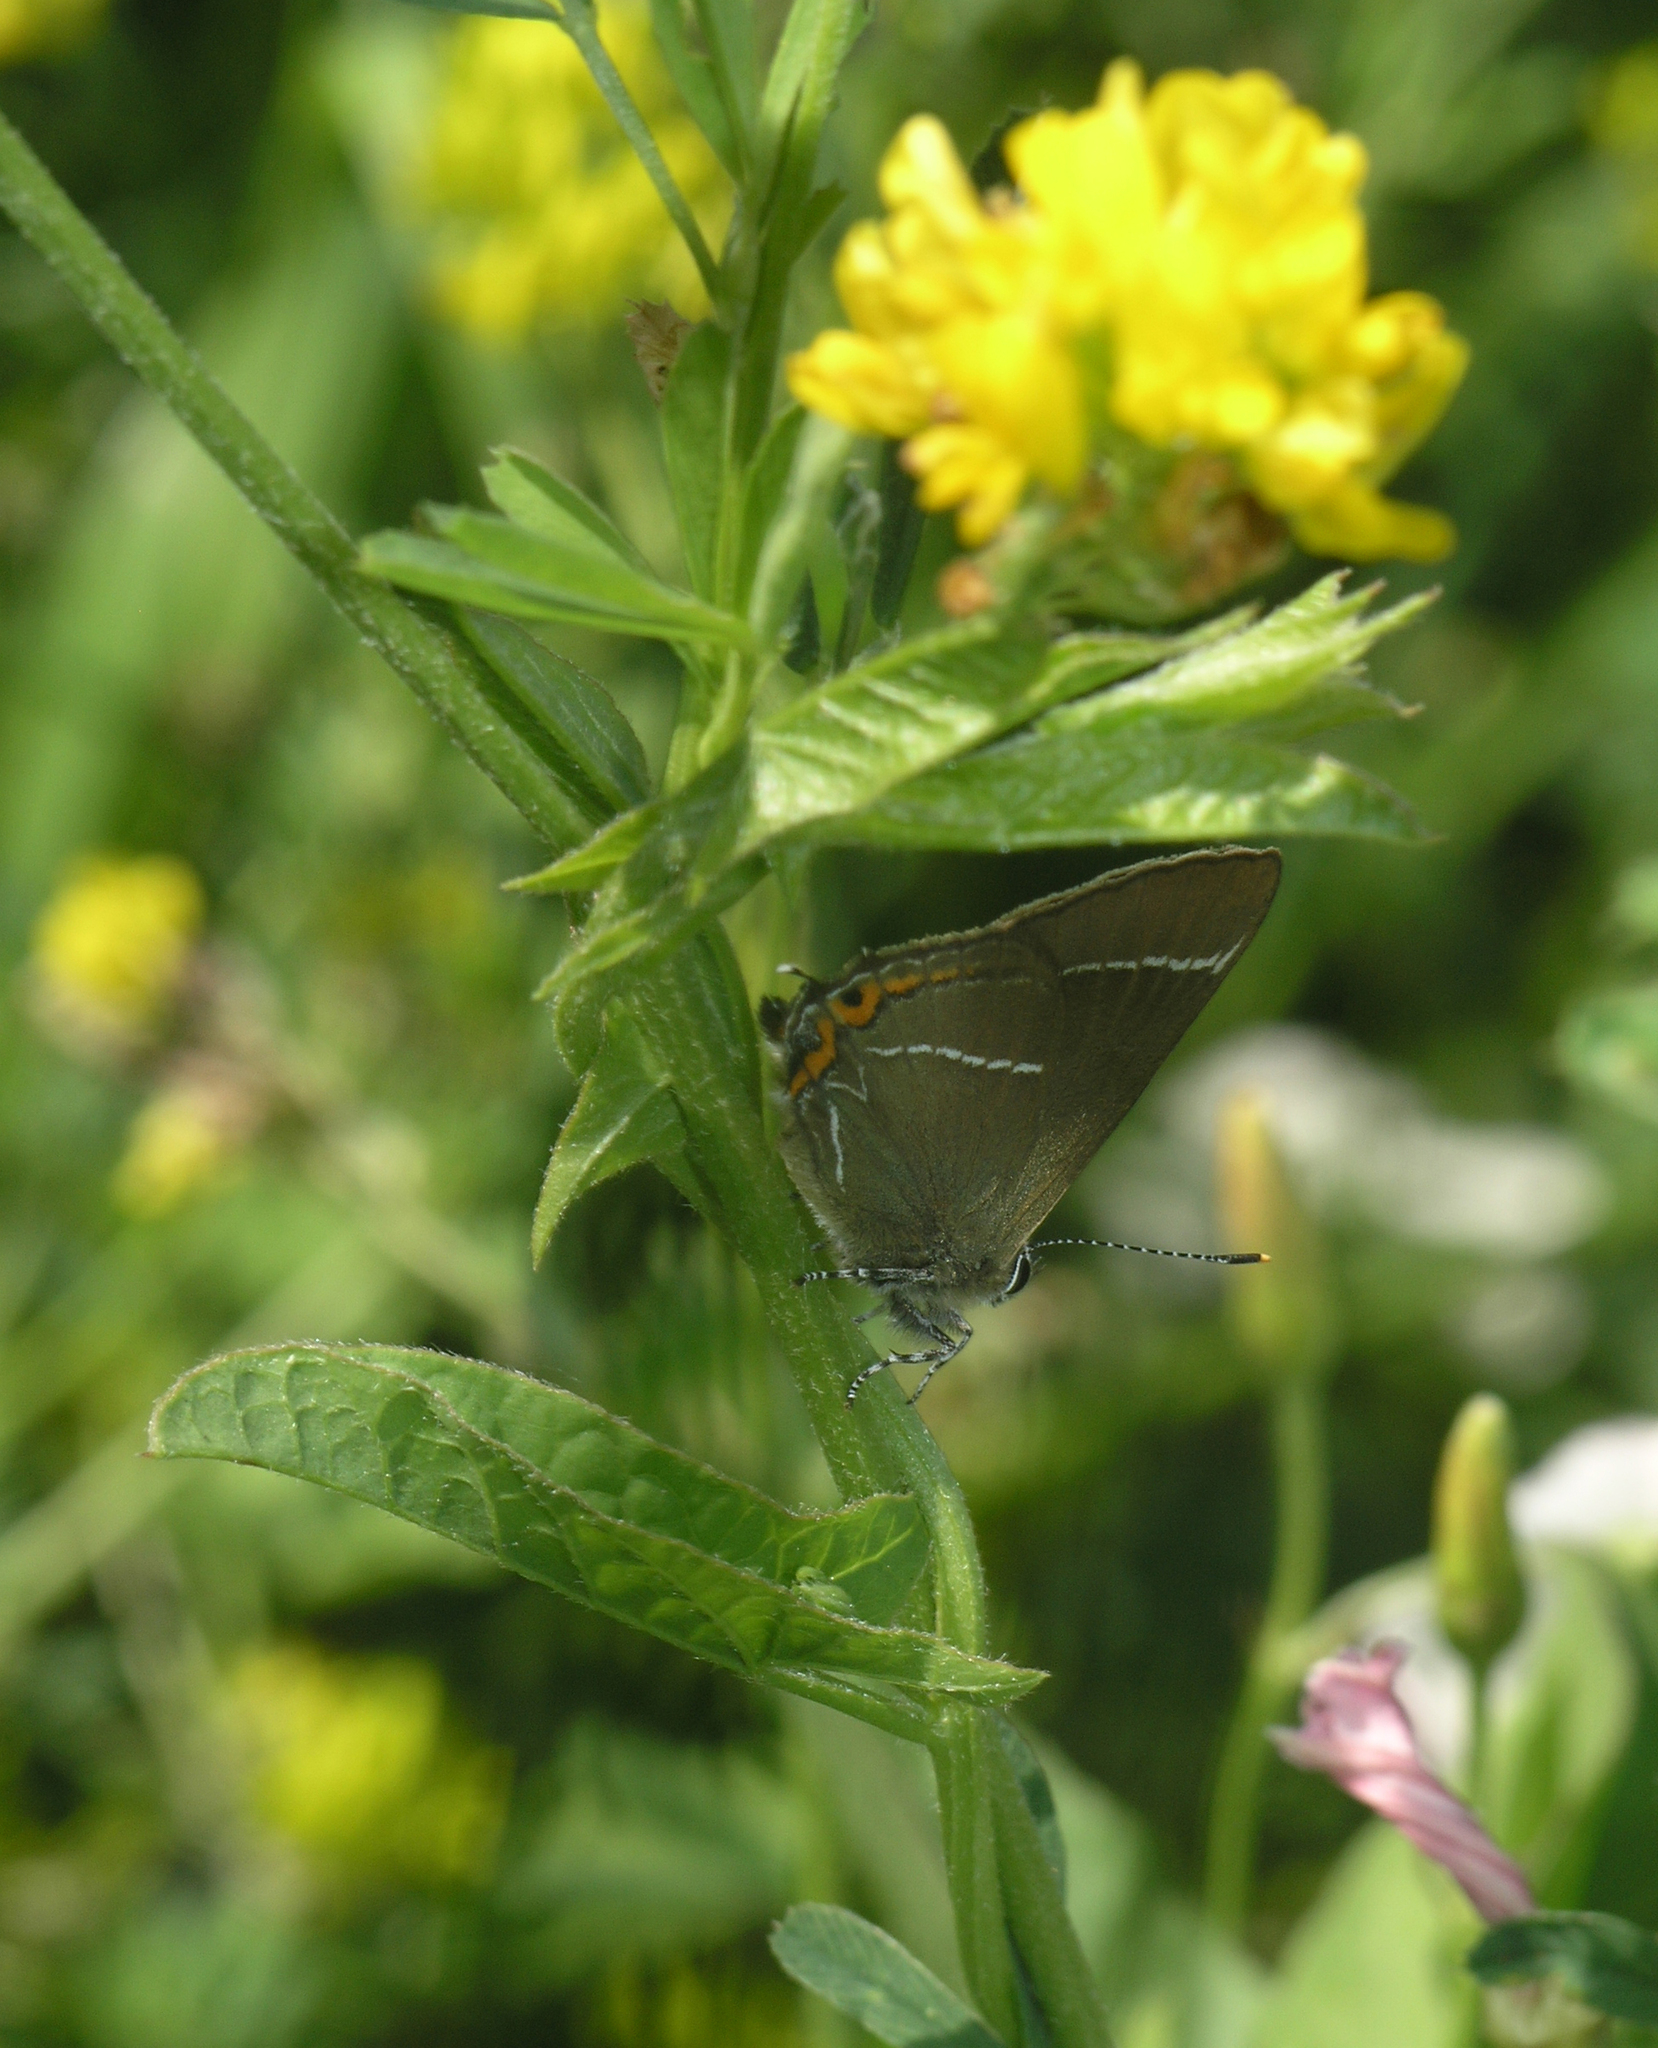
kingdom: Animalia
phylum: Arthropoda
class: Insecta
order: Lepidoptera
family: Lycaenidae
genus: Satyrium
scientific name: Satyrium w-album
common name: White-letter hairstreak
